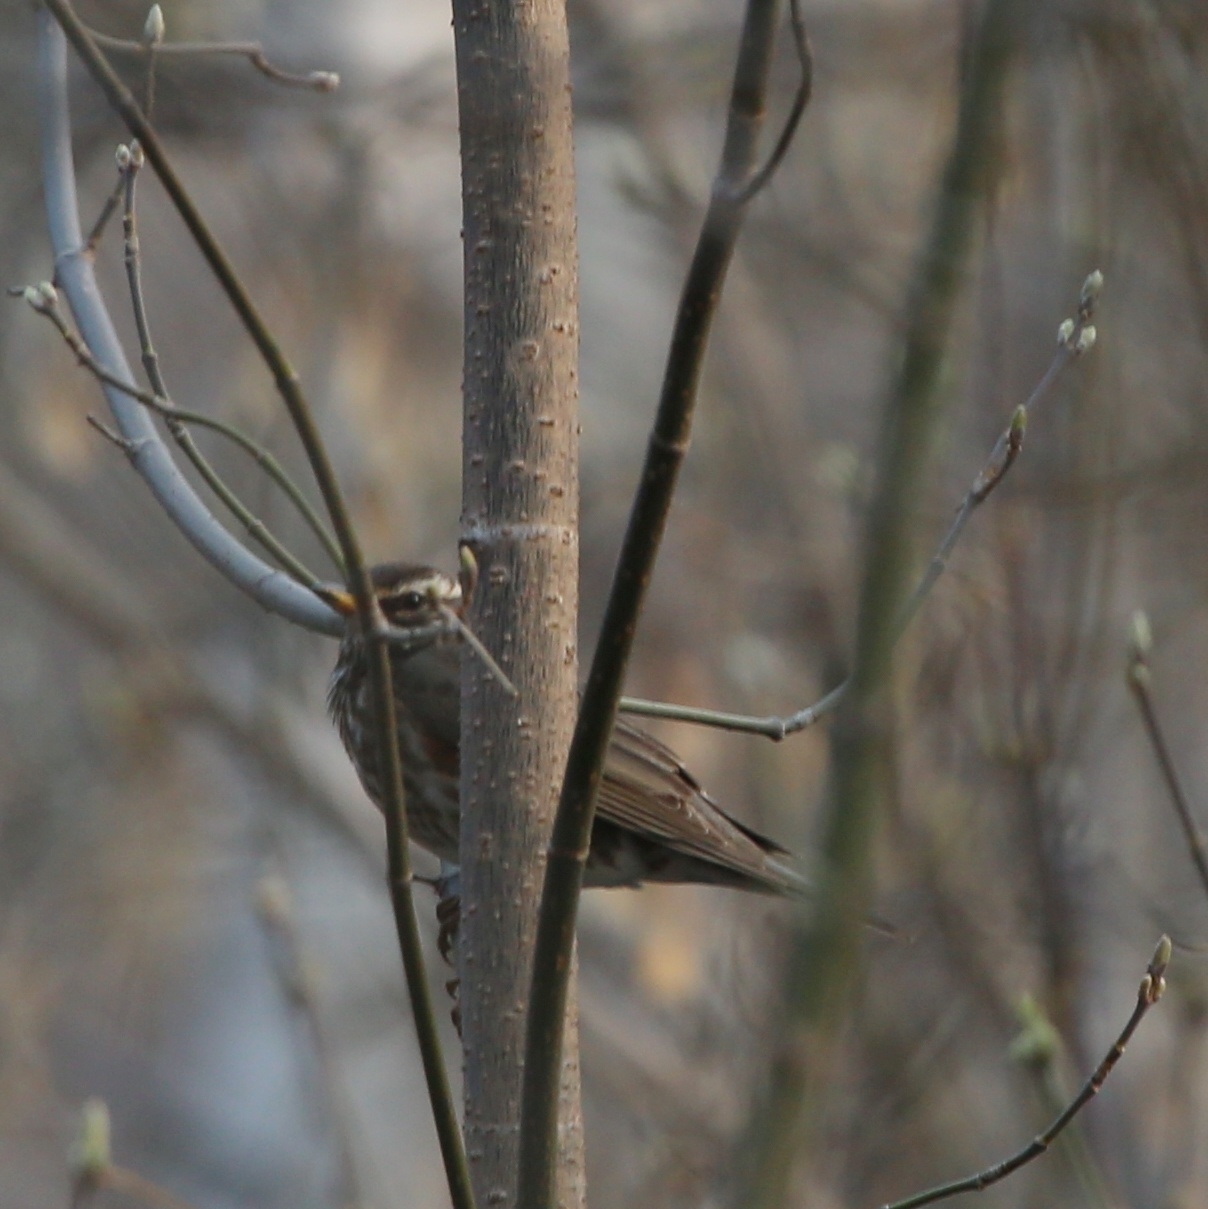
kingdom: Animalia
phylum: Chordata
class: Aves
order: Passeriformes
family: Turdidae
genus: Turdus
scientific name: Turdus iliacus
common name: Redwing
